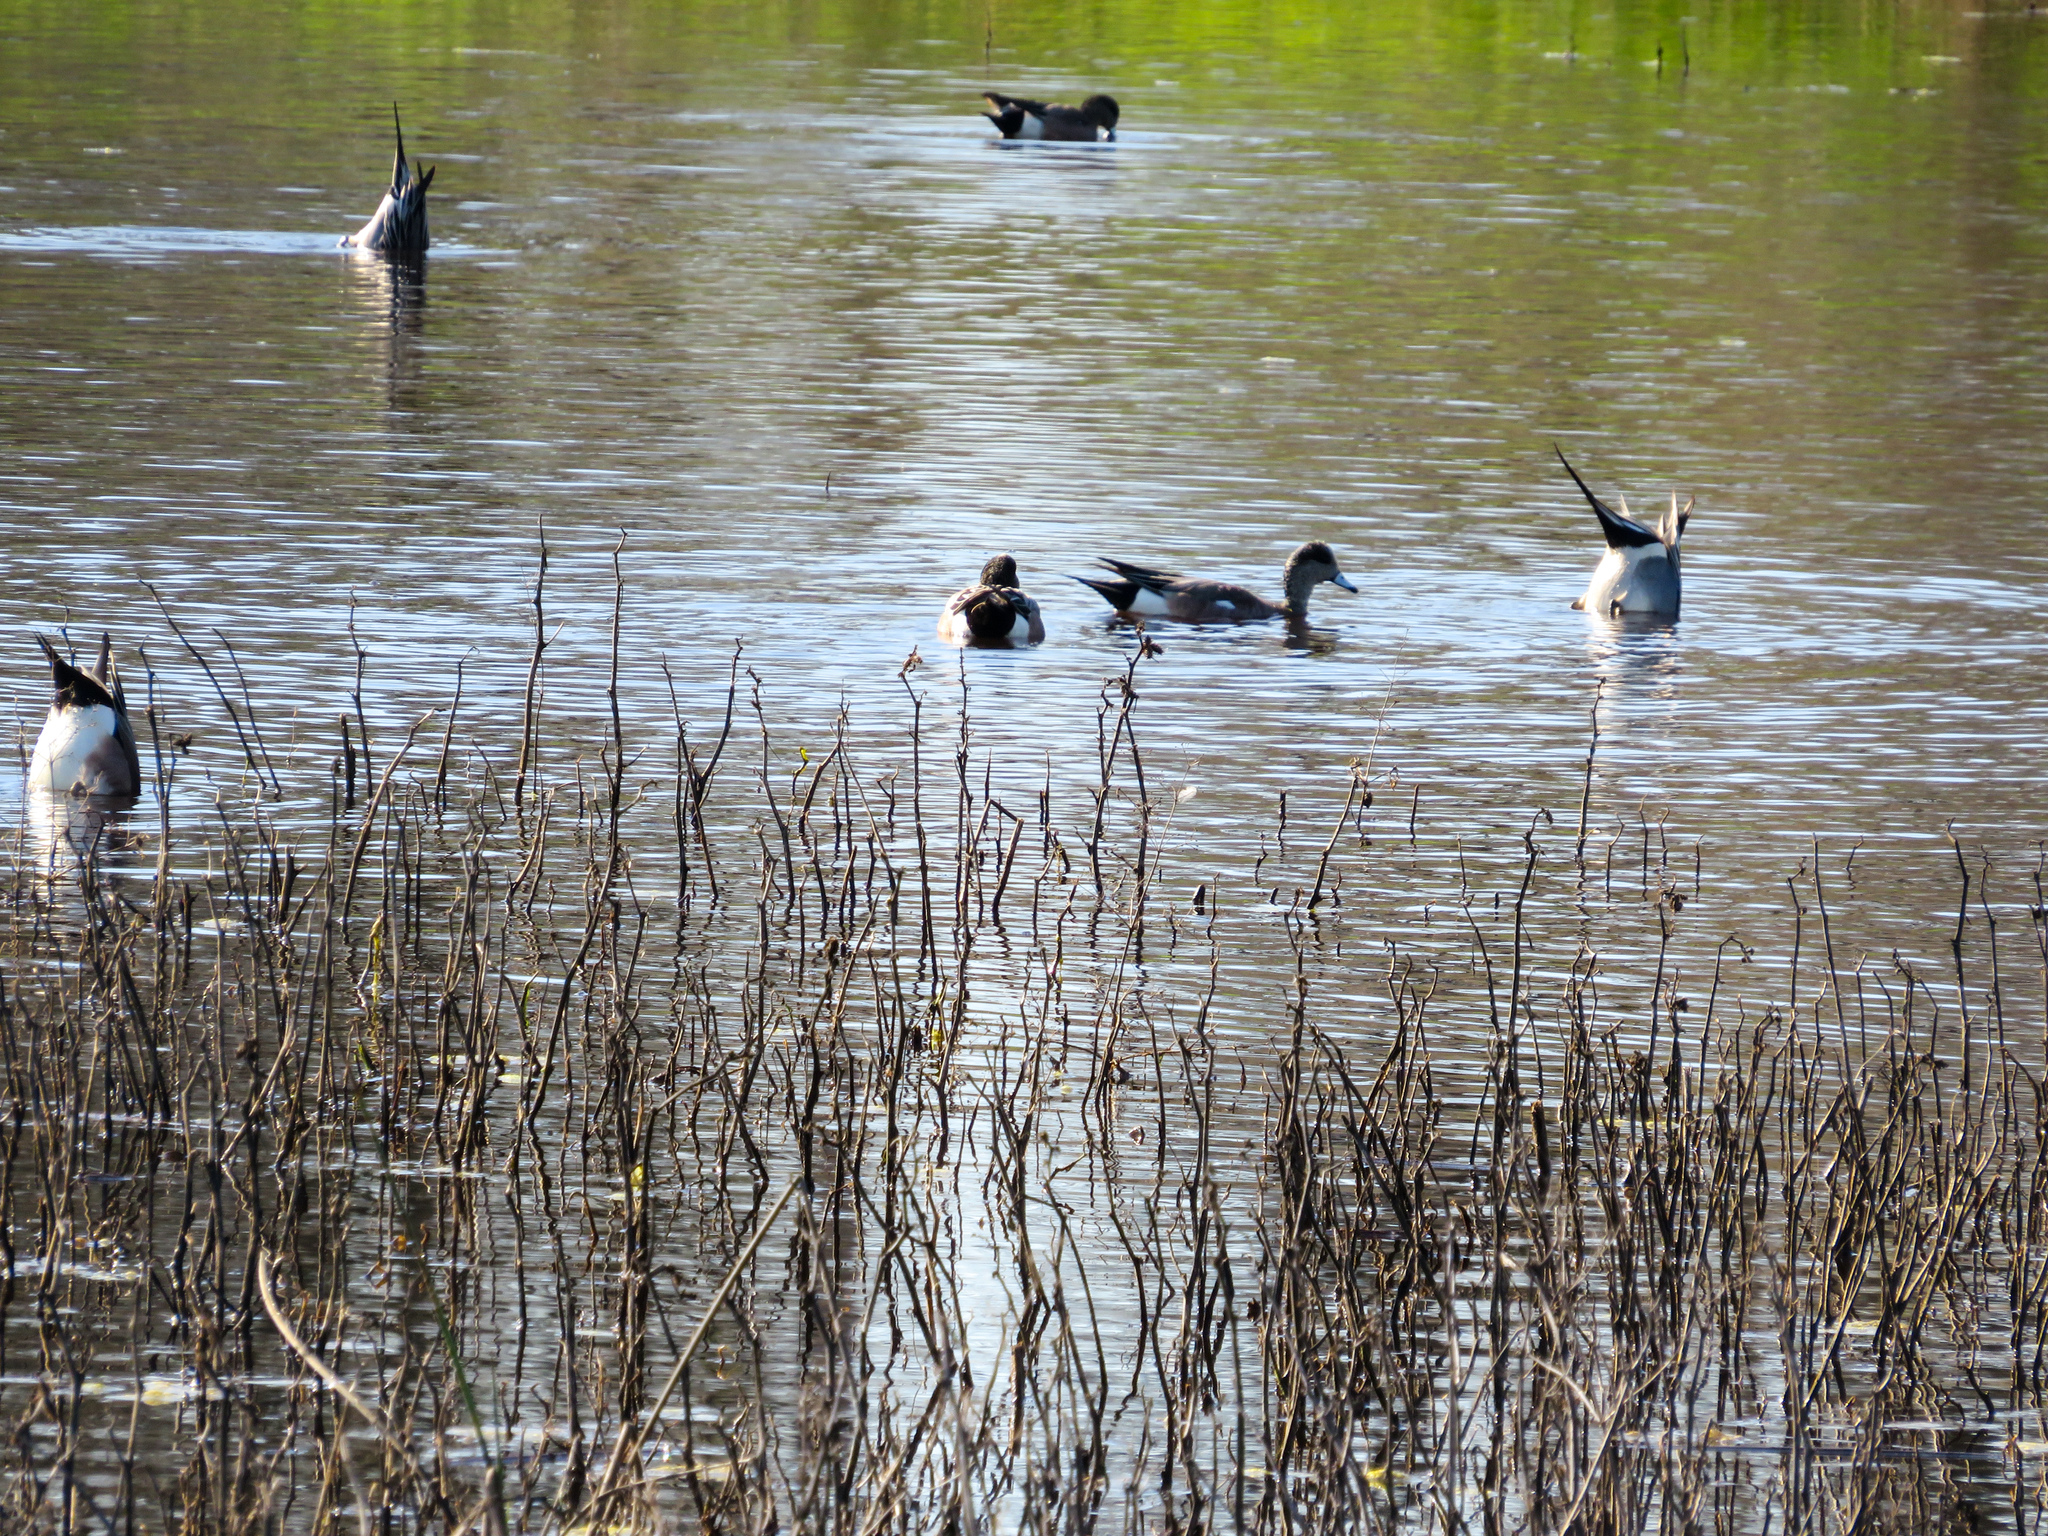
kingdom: Animalia
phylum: Chordata
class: Aves
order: Anseriformes
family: Anatidae
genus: Anas
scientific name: Anas acuta
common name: Northern pintail
